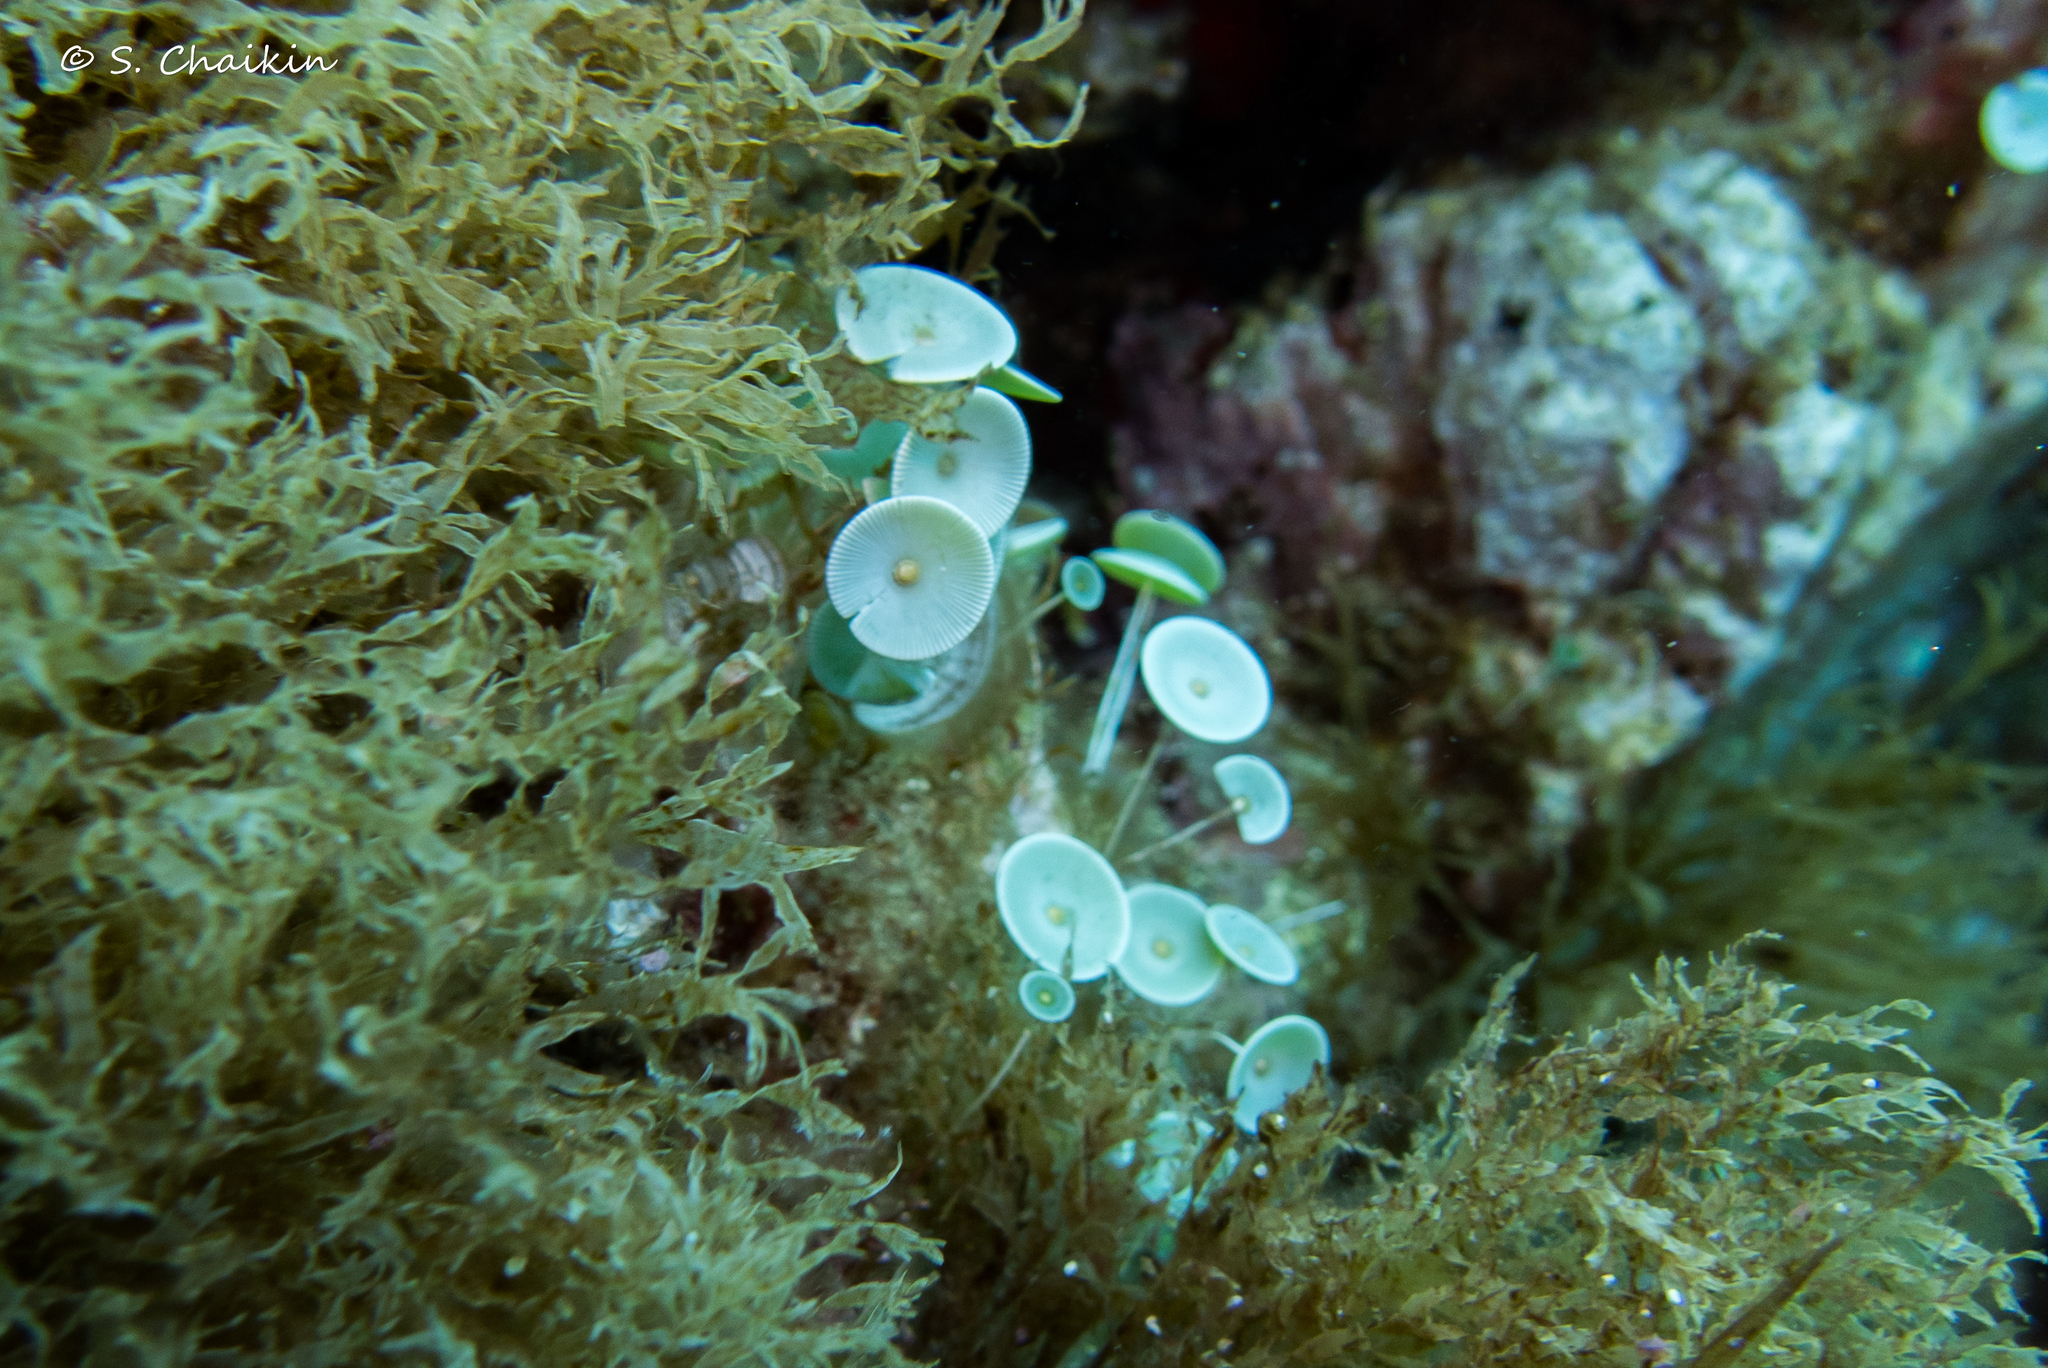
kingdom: Plantae
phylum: Chlorophyta
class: Ulvophyceae
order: Dasycladales
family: Polyphysaceae
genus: Acetabularia
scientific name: Acetabularia acetabulum
